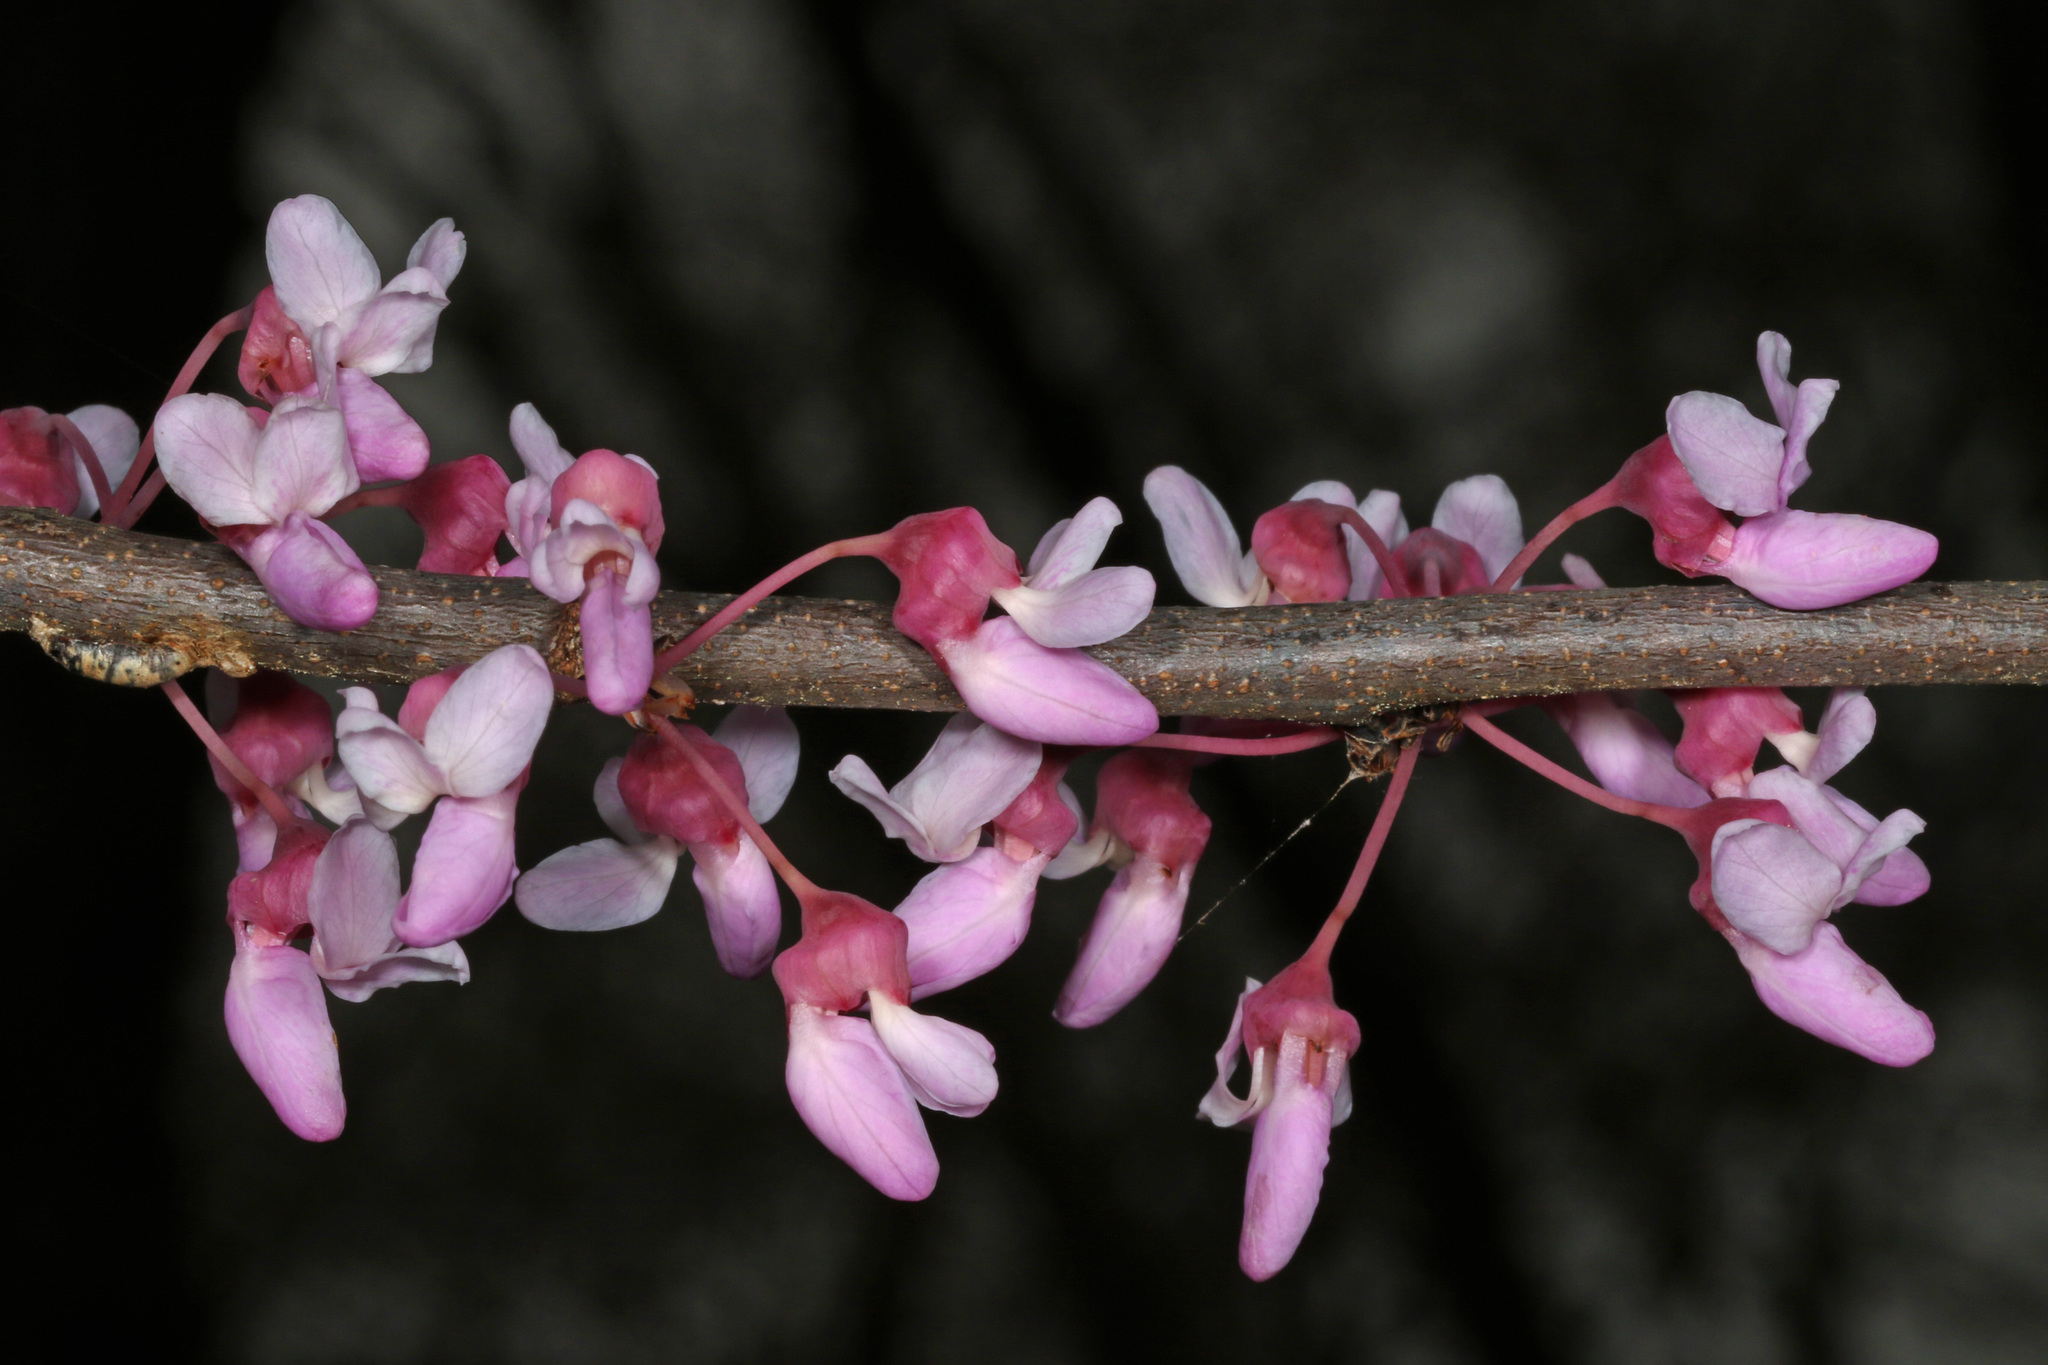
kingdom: Plantae
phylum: Tracheophyta
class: Magnoliopsida
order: Fabales
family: Fabaceae
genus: Cercis
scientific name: Cercis canadensis
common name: Eastern redbud
